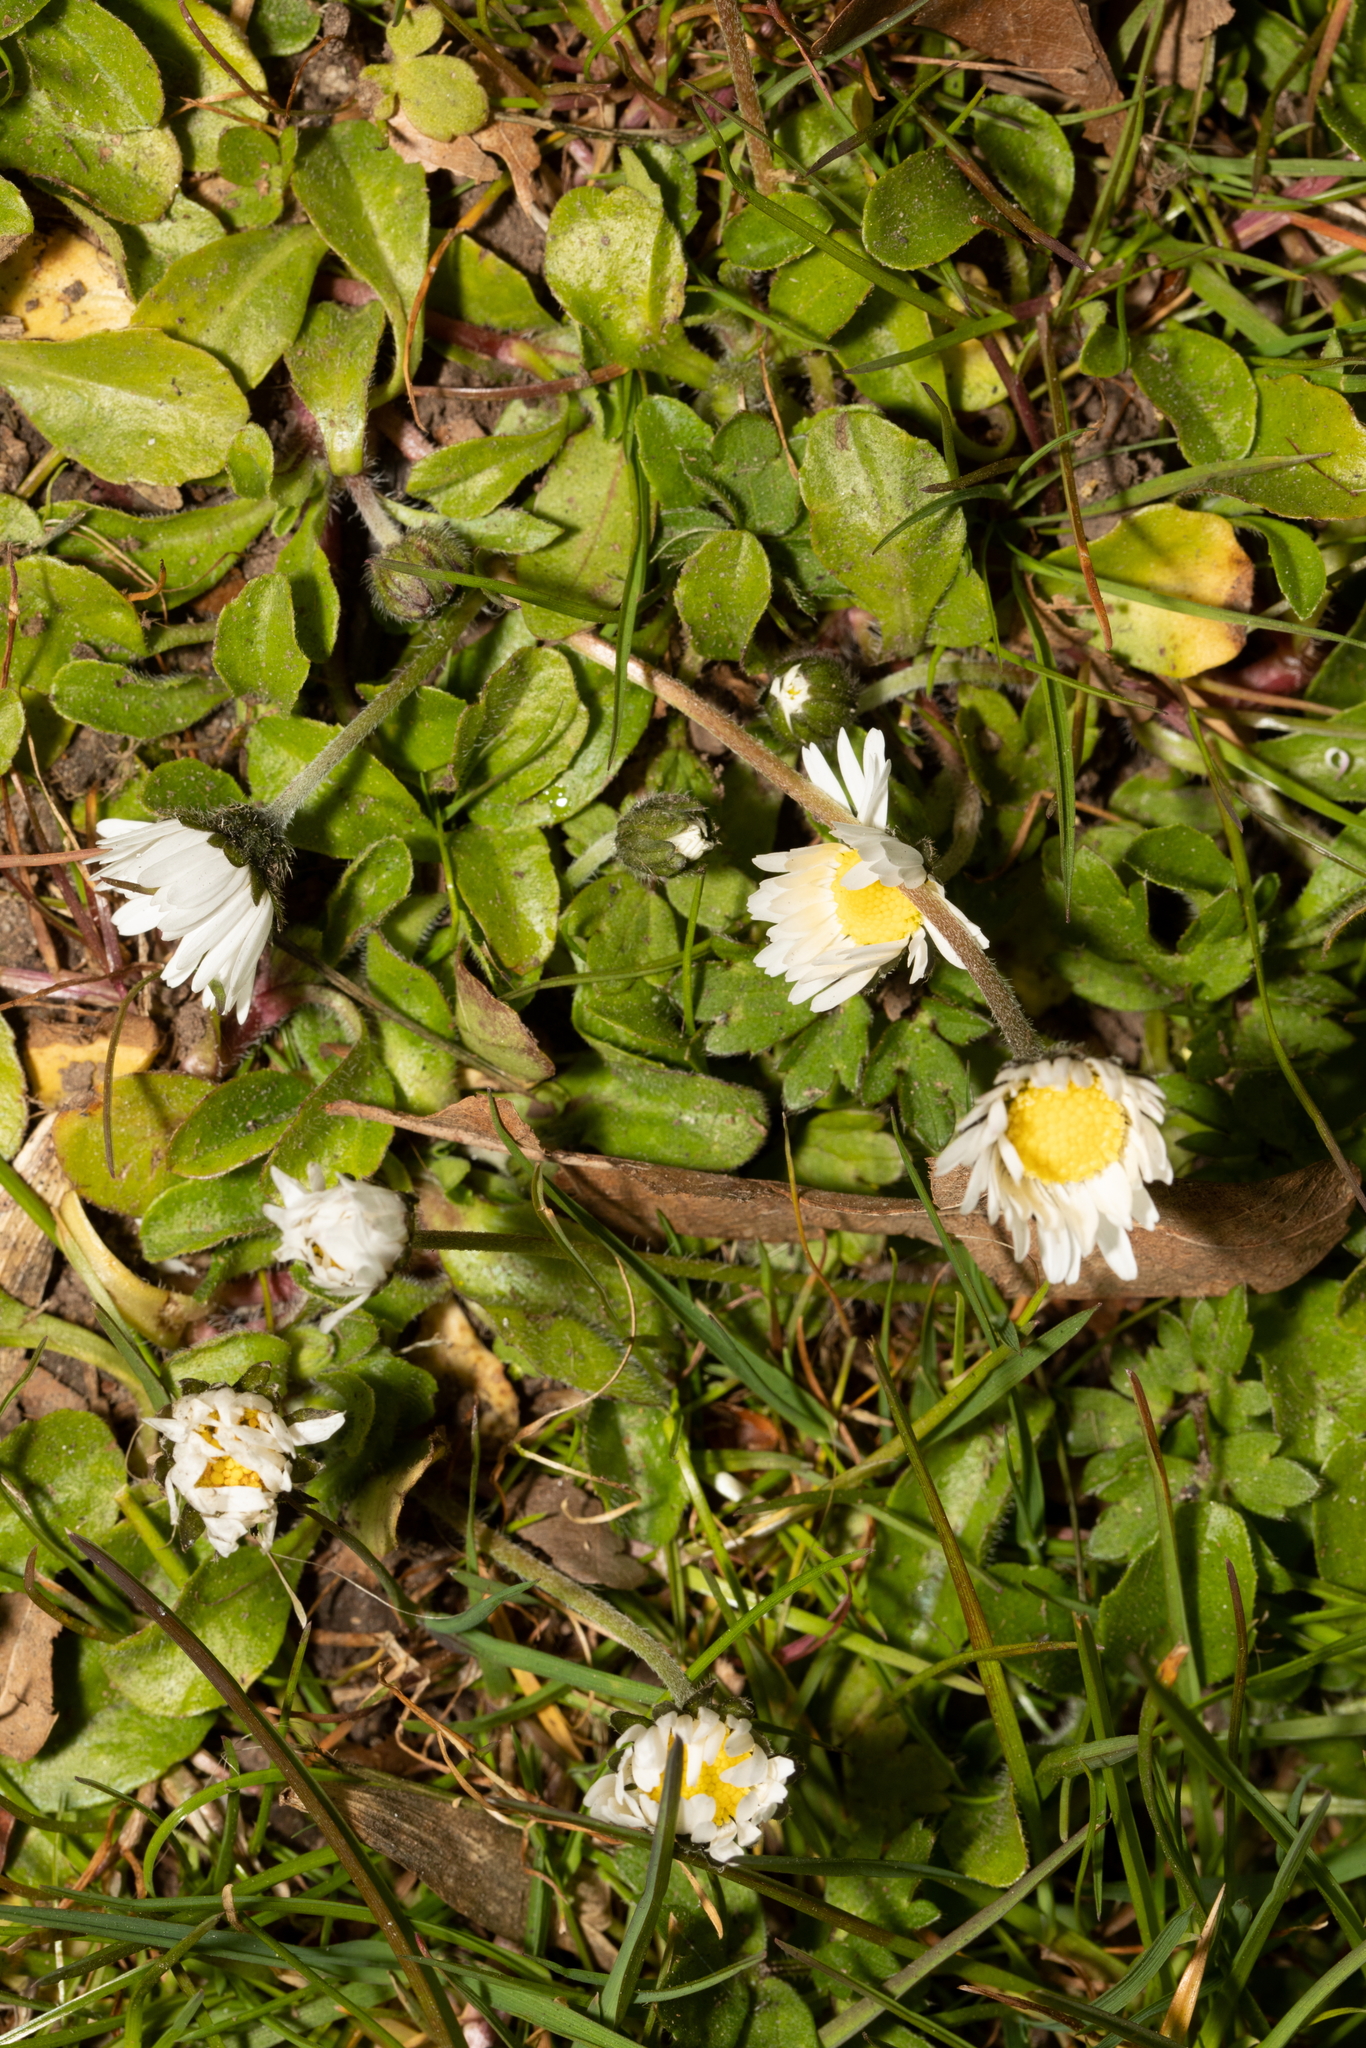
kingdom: Plantae
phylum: Tracheophyta
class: Magnoliopsida
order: Asterales
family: Asteraceae
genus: Bellis
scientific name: Bellis perennis
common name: Lawndaisy
